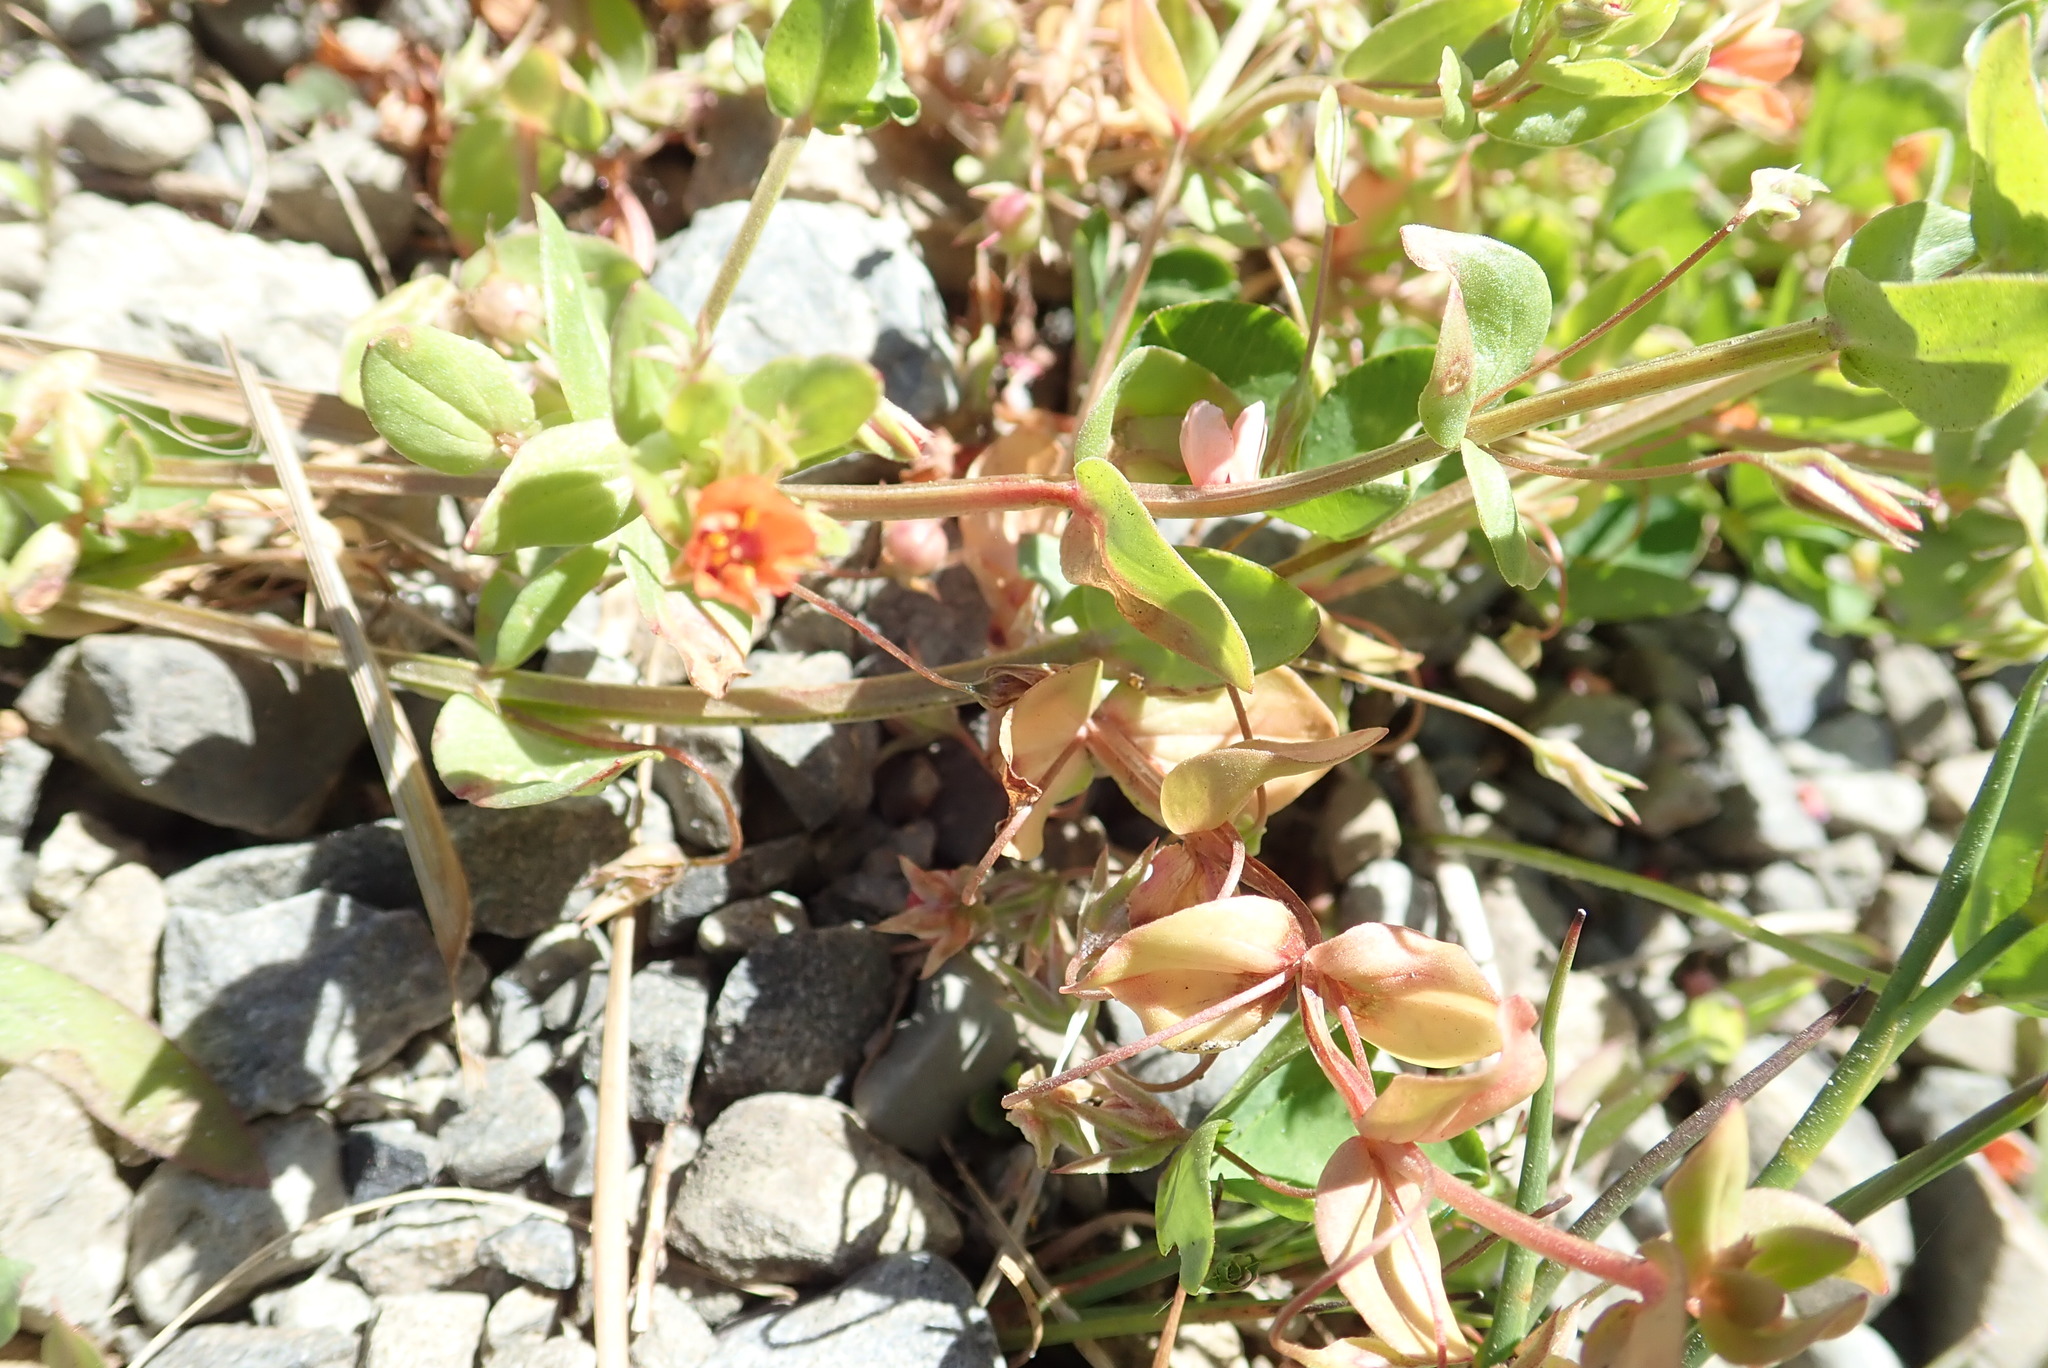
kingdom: Plantae
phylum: Tracheophyta
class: Magnoliopsida
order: Ericales
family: Primulaceae
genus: Lysimachia
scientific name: Lysimachia arvensis
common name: Scarlet pimpernel
